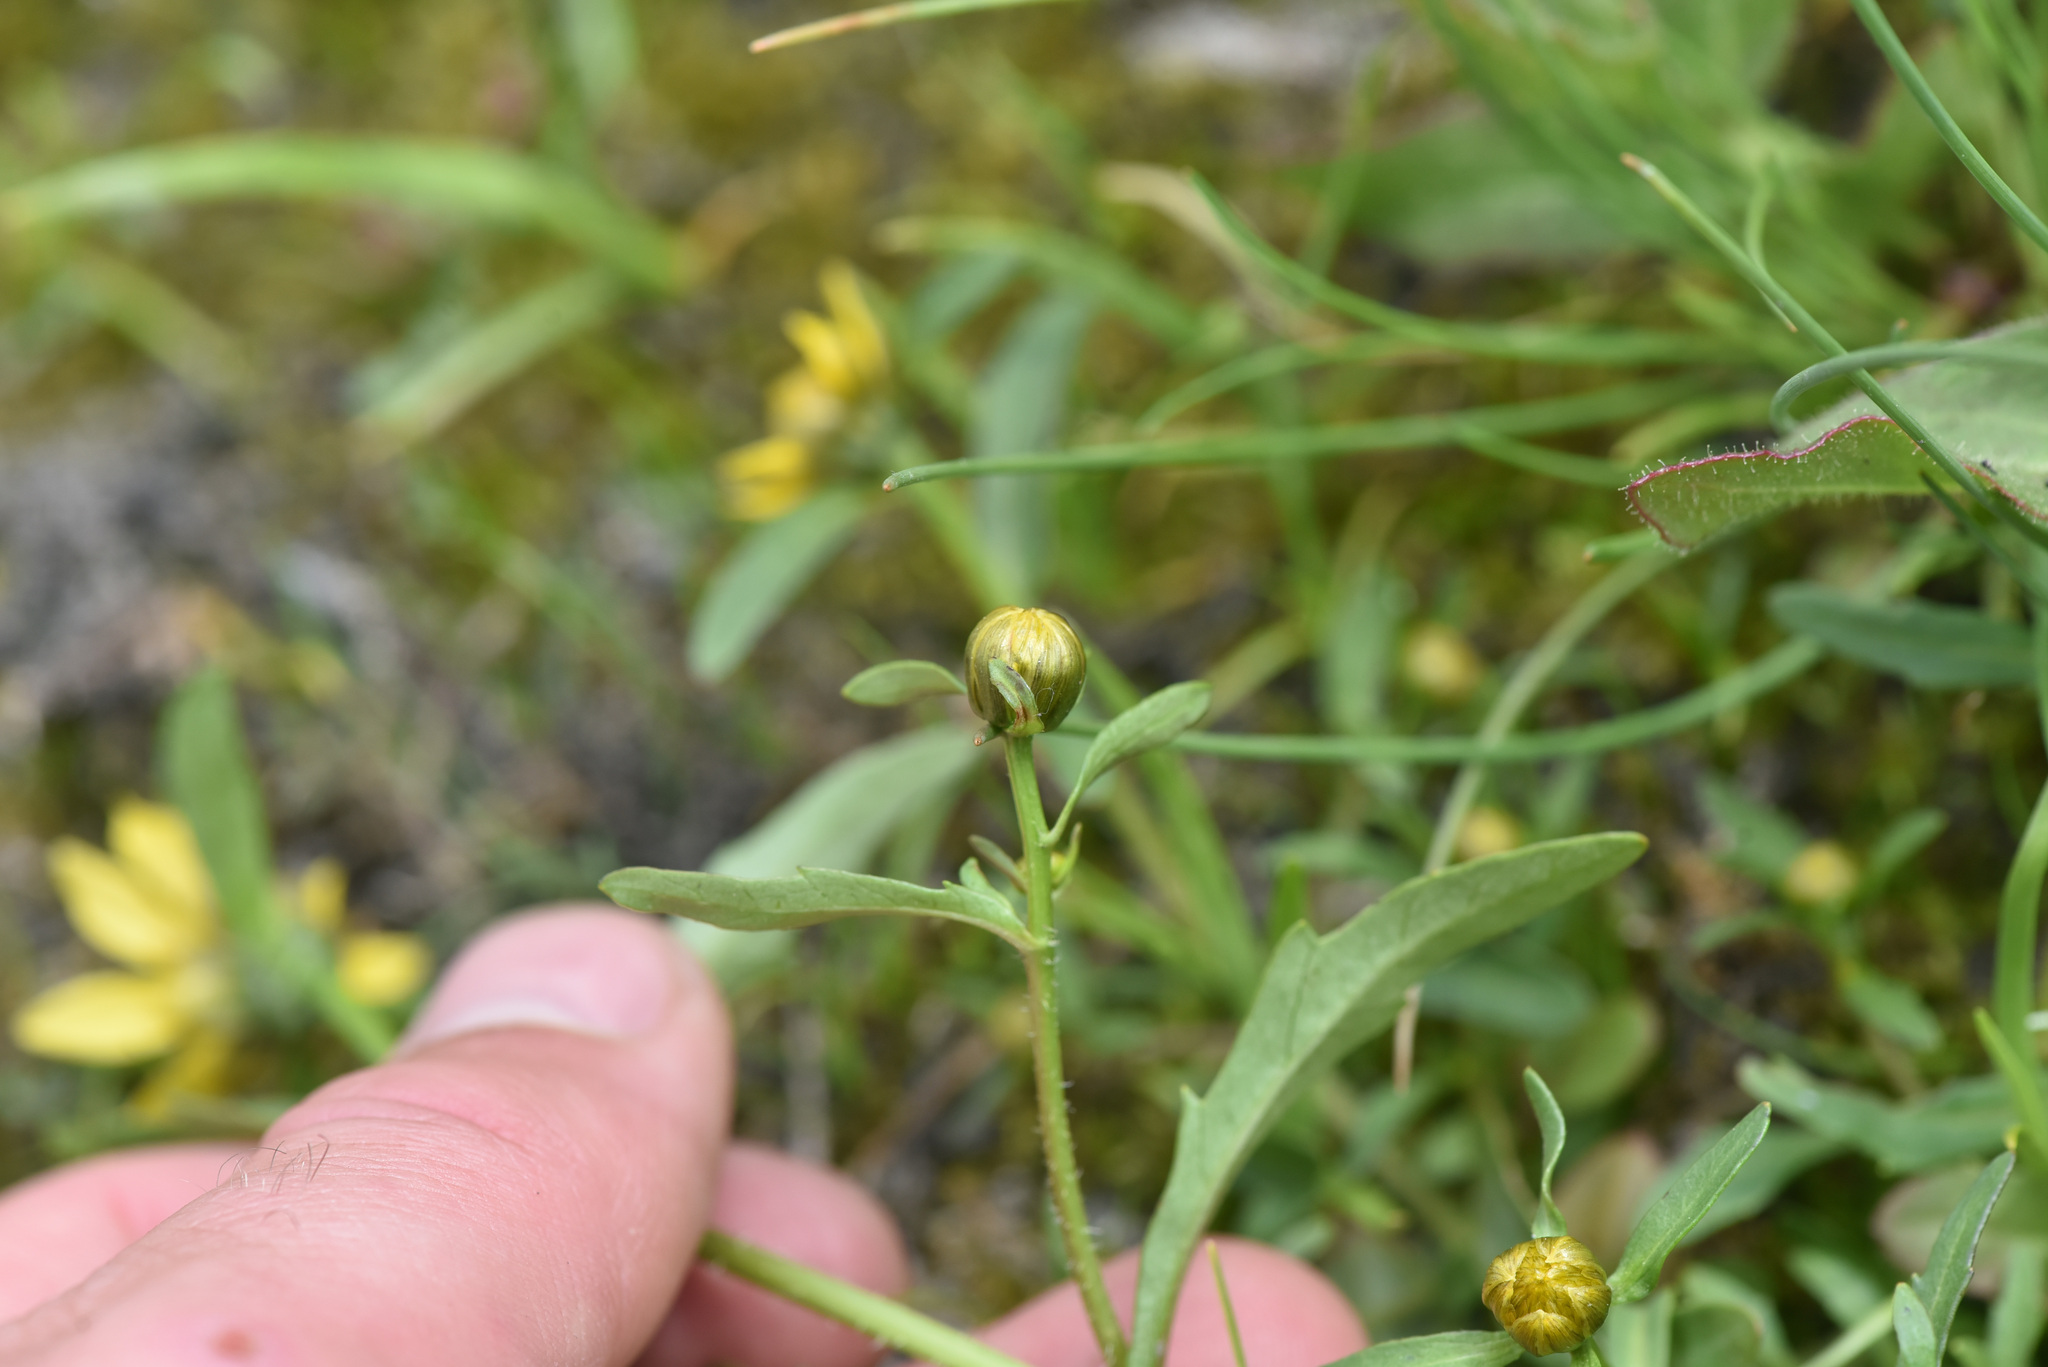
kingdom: Plantae
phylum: Tracheophyta
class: Magnoliopsida
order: Asterales
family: Asteraceae
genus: Bidens
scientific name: Bidens cernua
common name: Nodding bur-marigold
